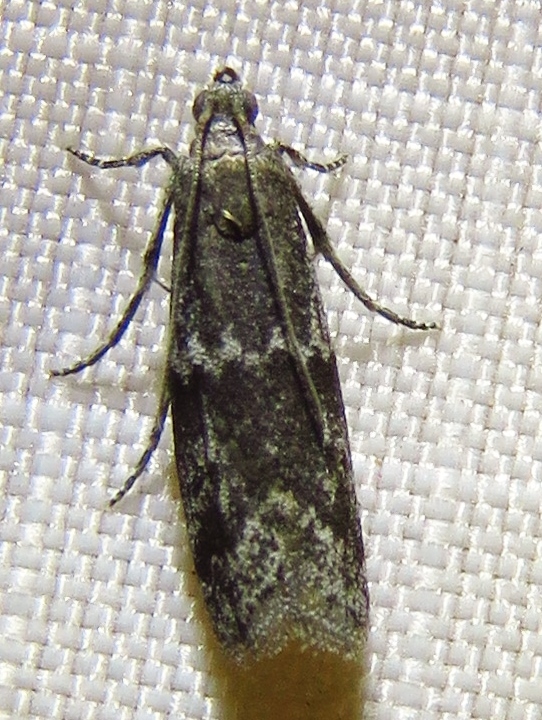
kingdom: Animalia
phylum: Arthropoda
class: Insecta
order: Lepidoptera
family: Pyralidae
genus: Eurythmia
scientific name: Eurythmia angulella
